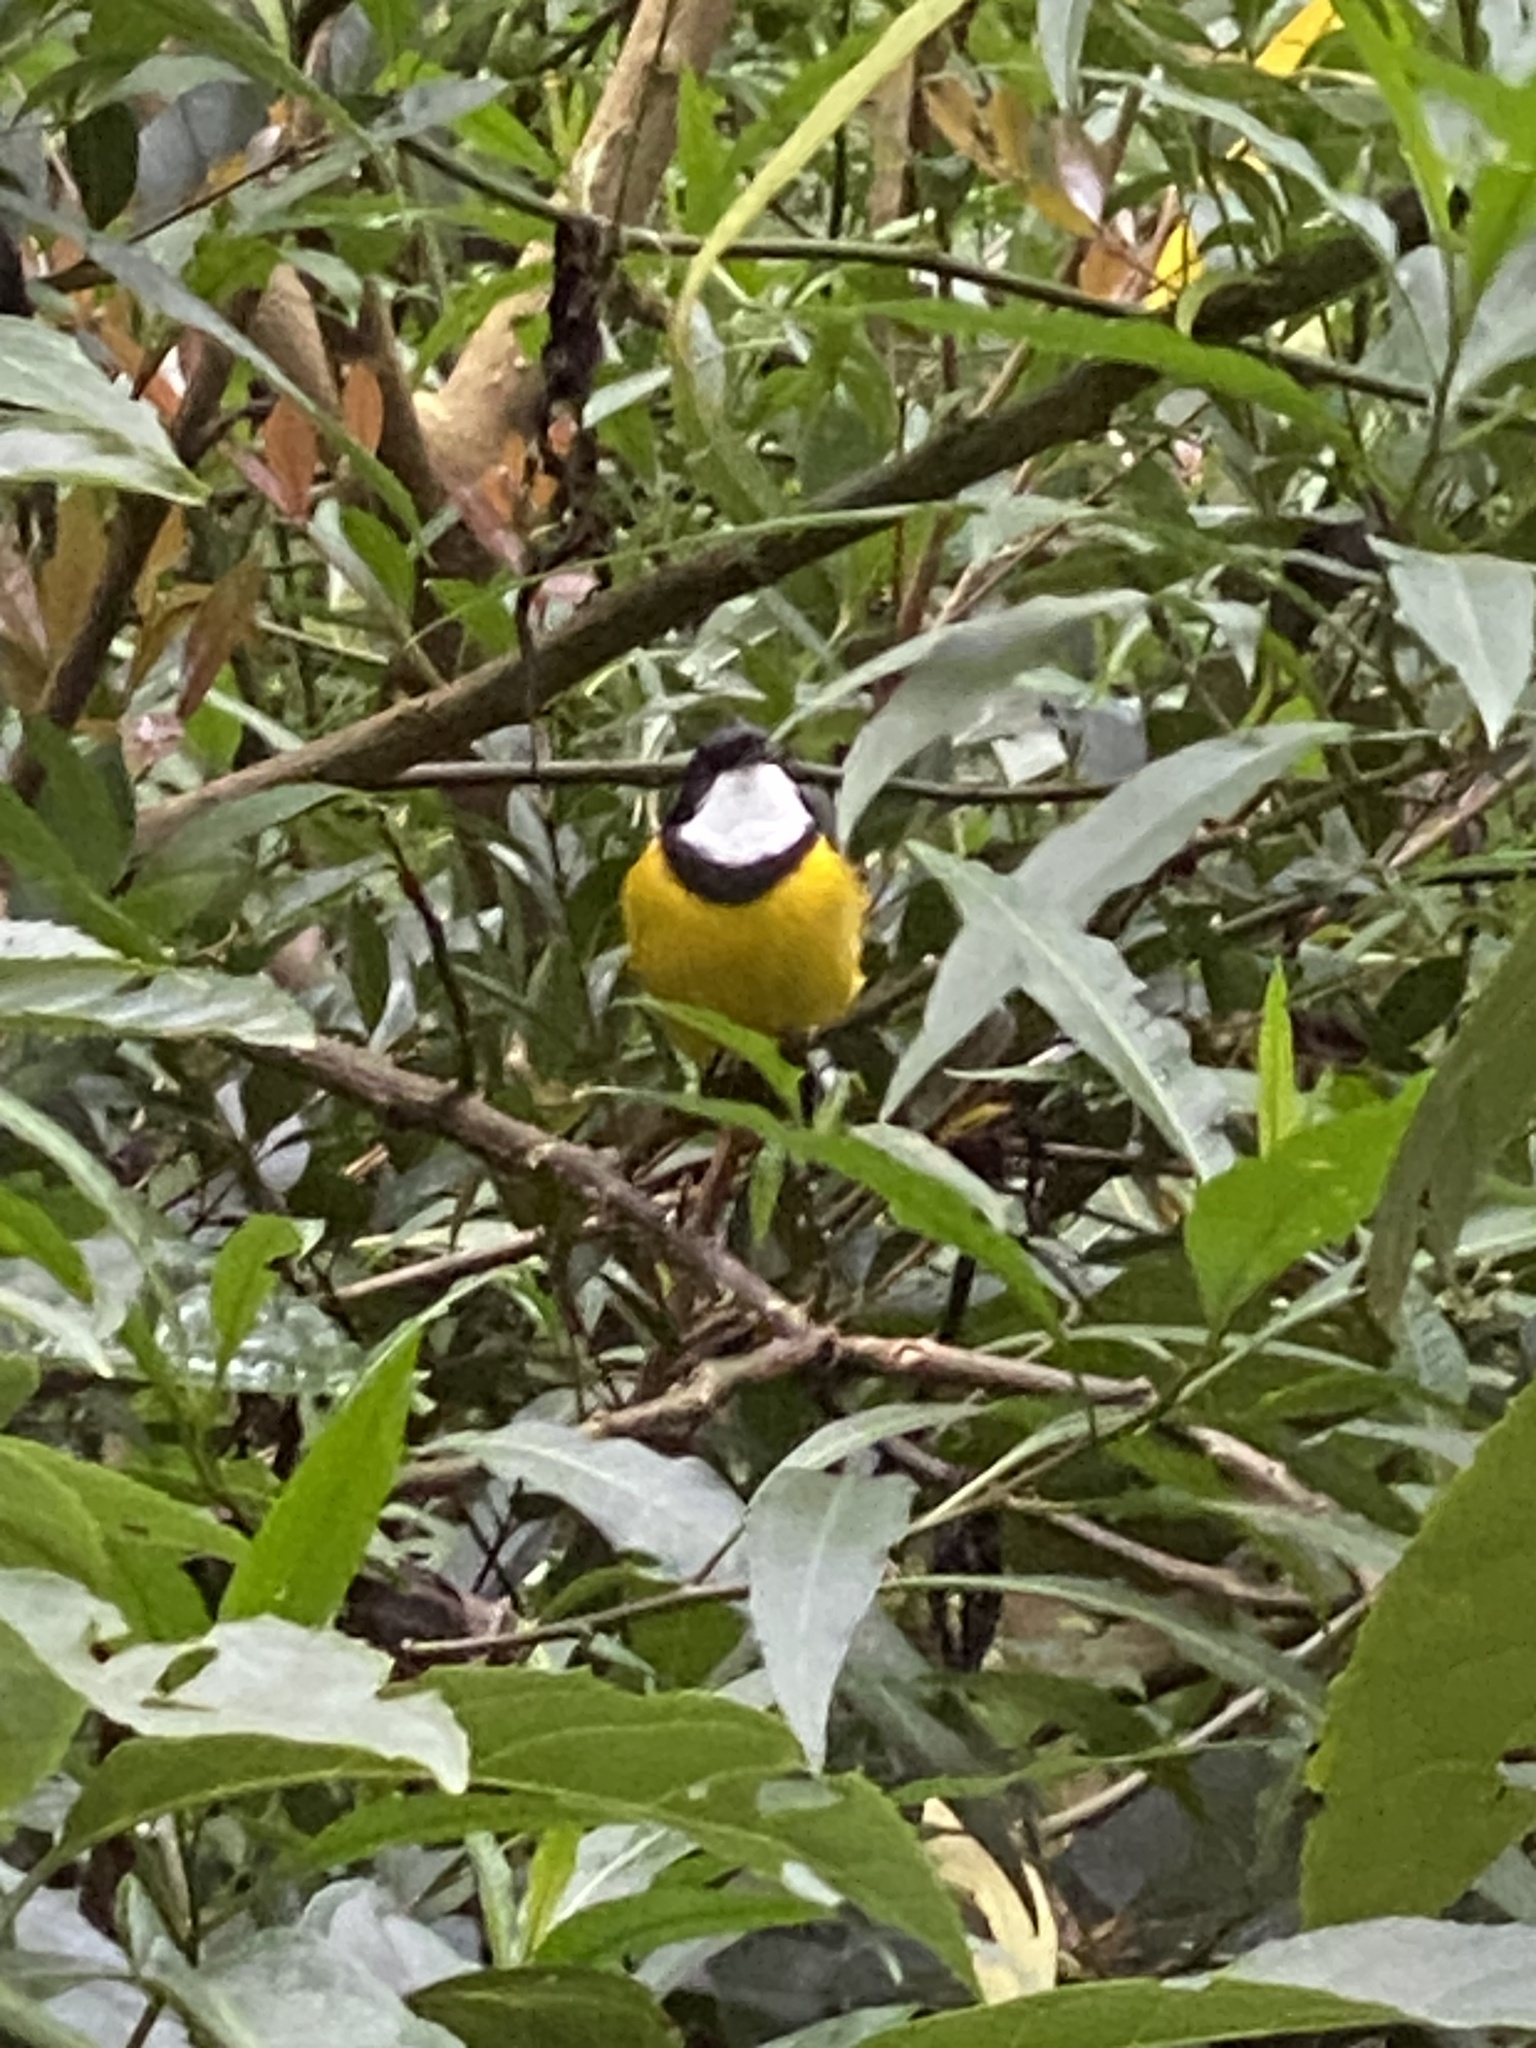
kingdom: Animalia
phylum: Chordata
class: Aves
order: Passeriformes
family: Pachycephalidae
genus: Pachycephala
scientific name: Pachycephala pectoralis
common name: Australian golden whistler
